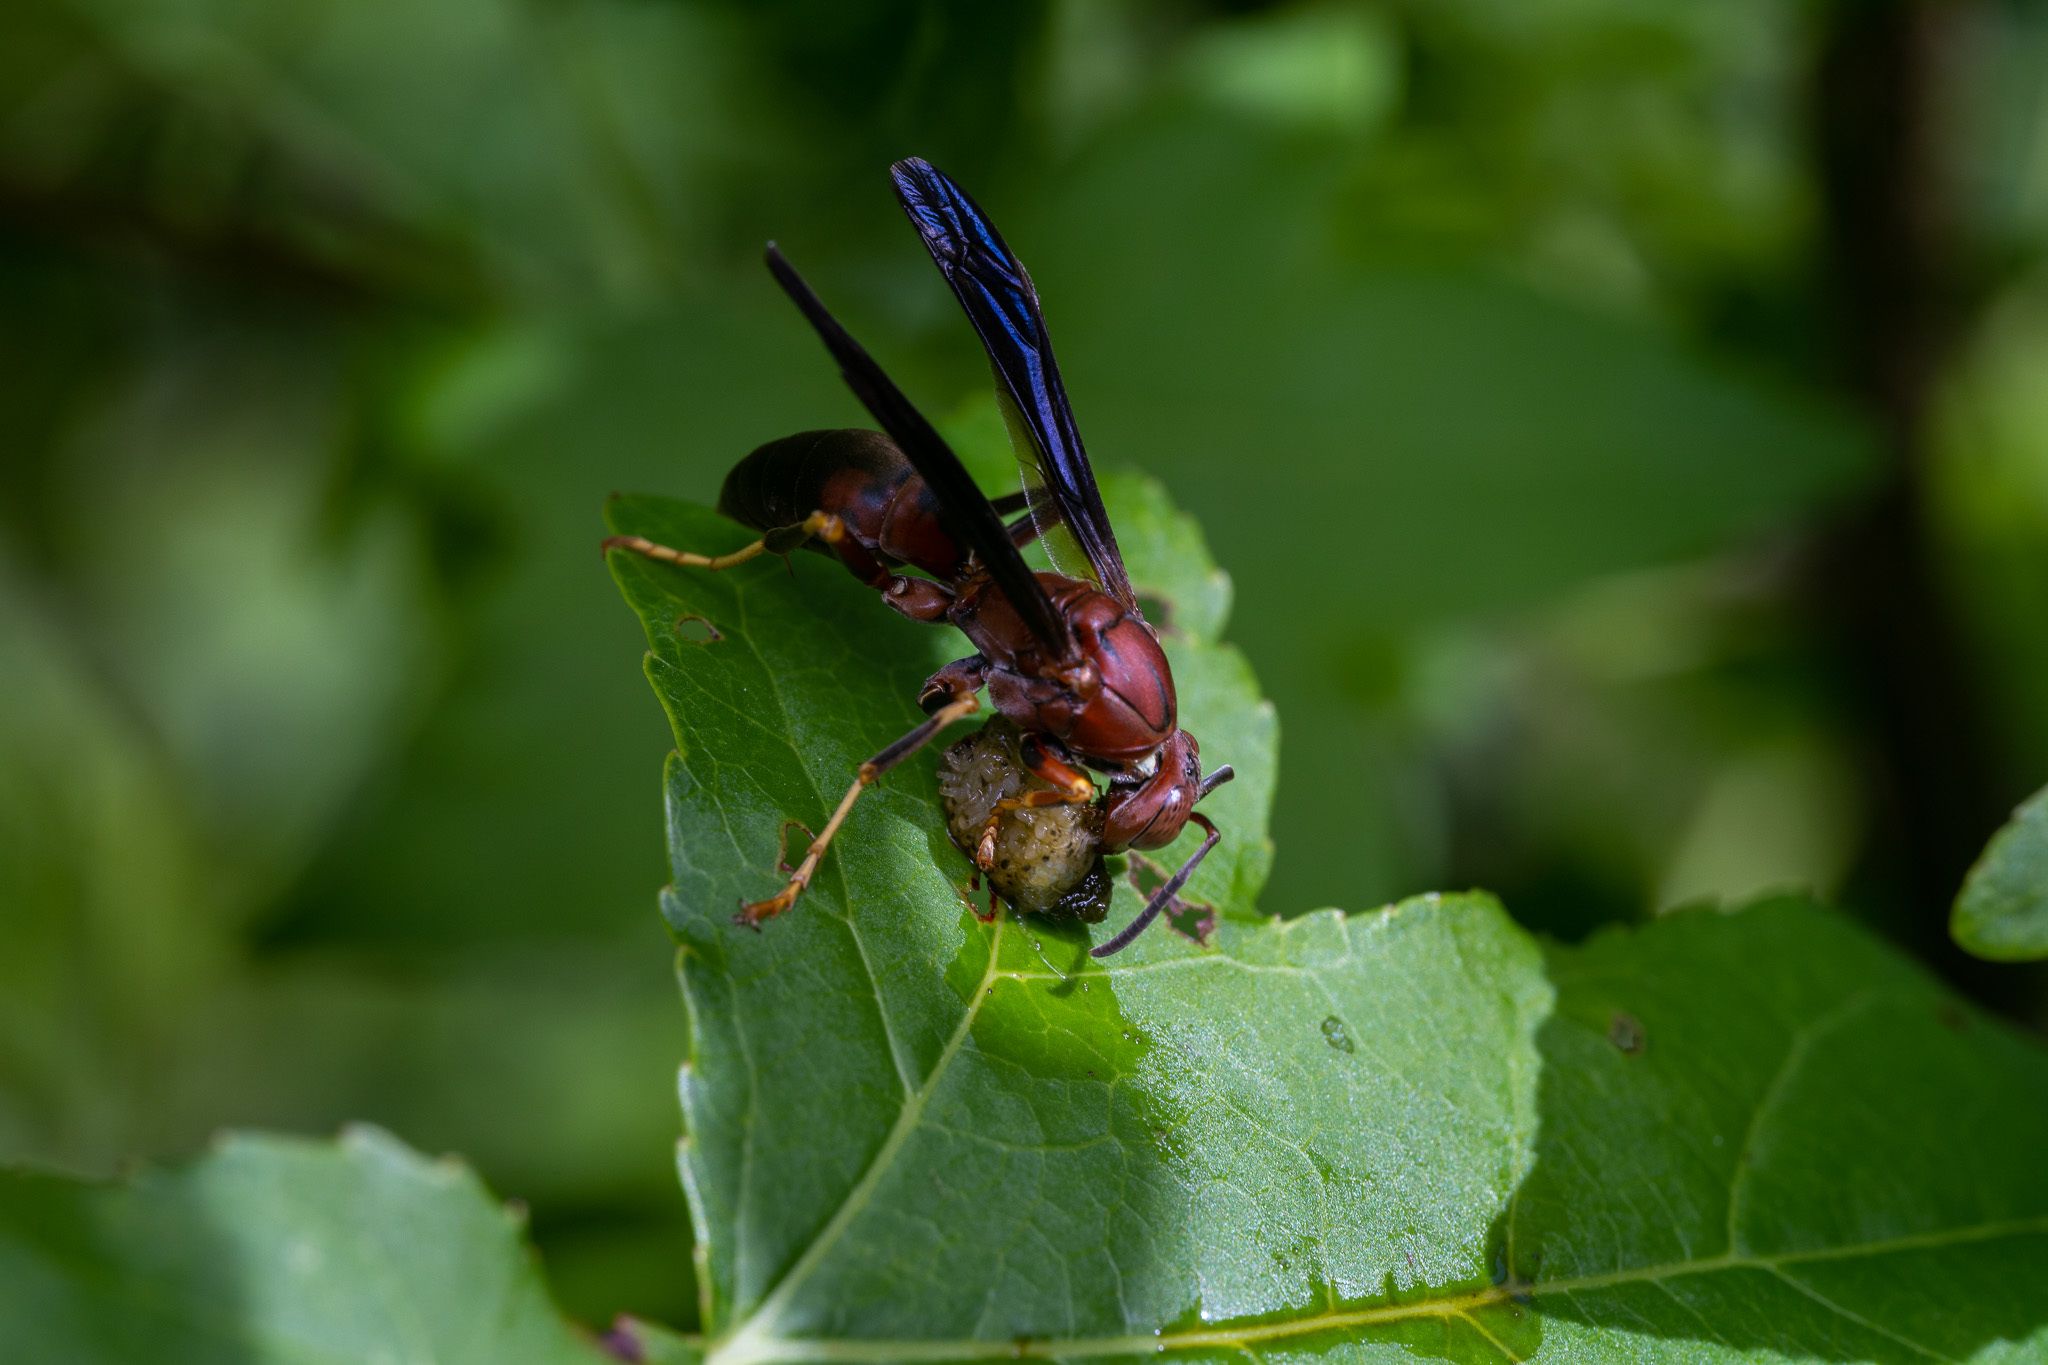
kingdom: Animalia
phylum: Arthropoda
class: Insecta
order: Hymenoptera
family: Eumenidae
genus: Polistes
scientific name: Polistes metricus
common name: Metric paper wasp
